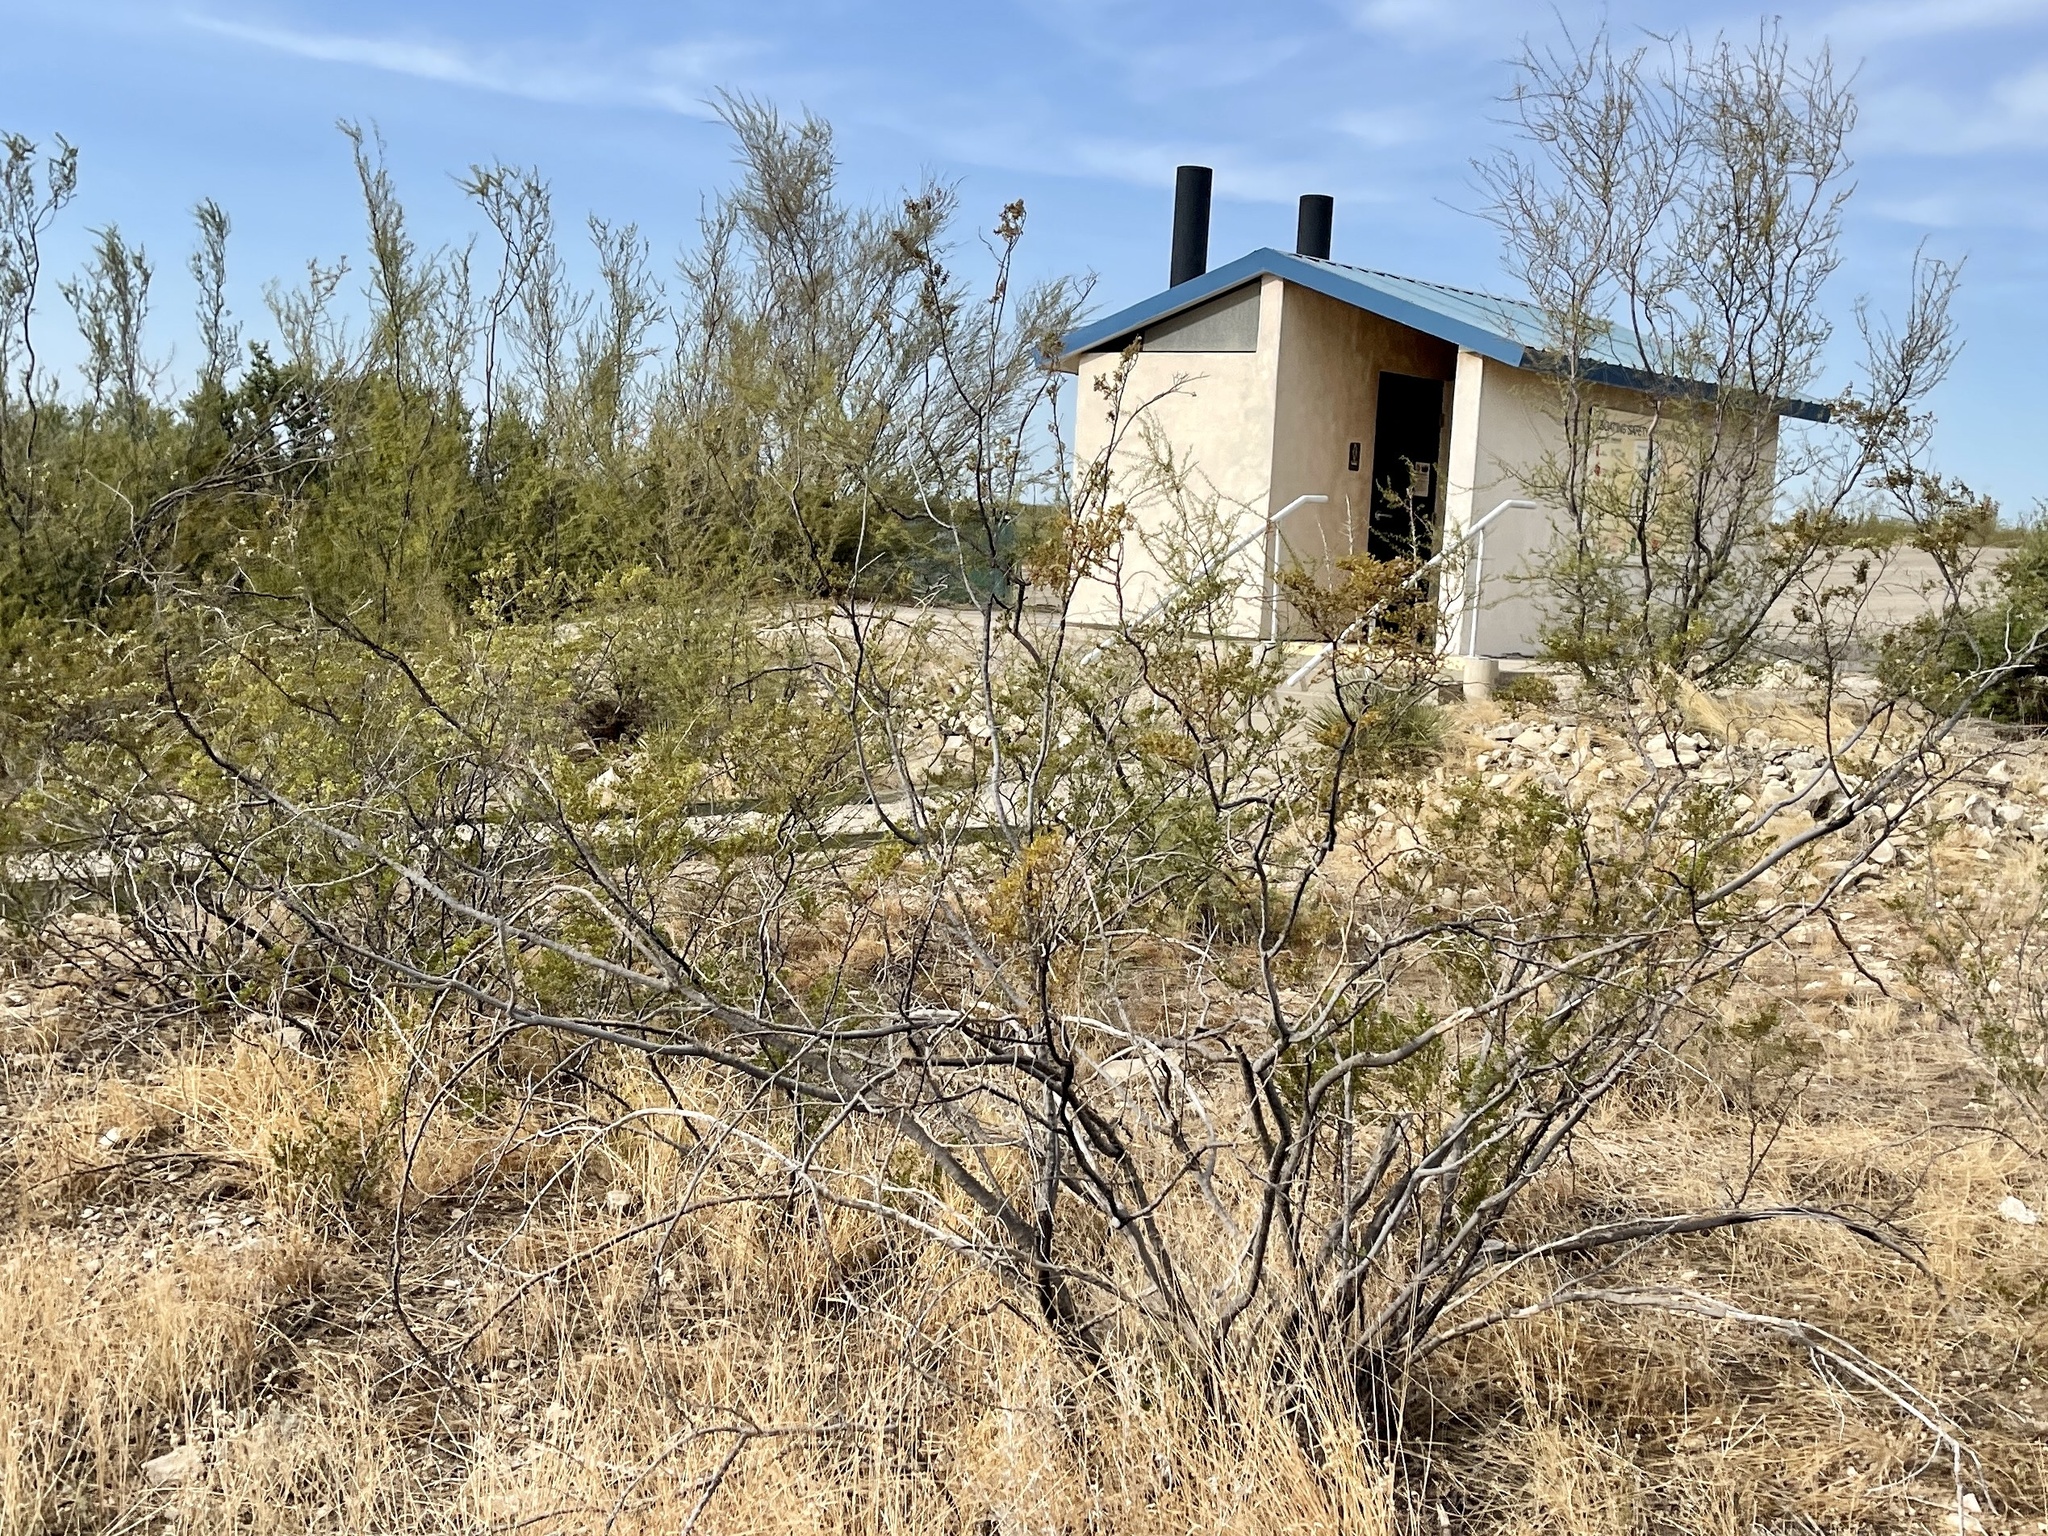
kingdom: Plantae
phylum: Tracheophyta
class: Magnoliopsida
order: Zygophyllales
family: Zygophyllaceae
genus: Larrea
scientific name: Larrea tridentata
